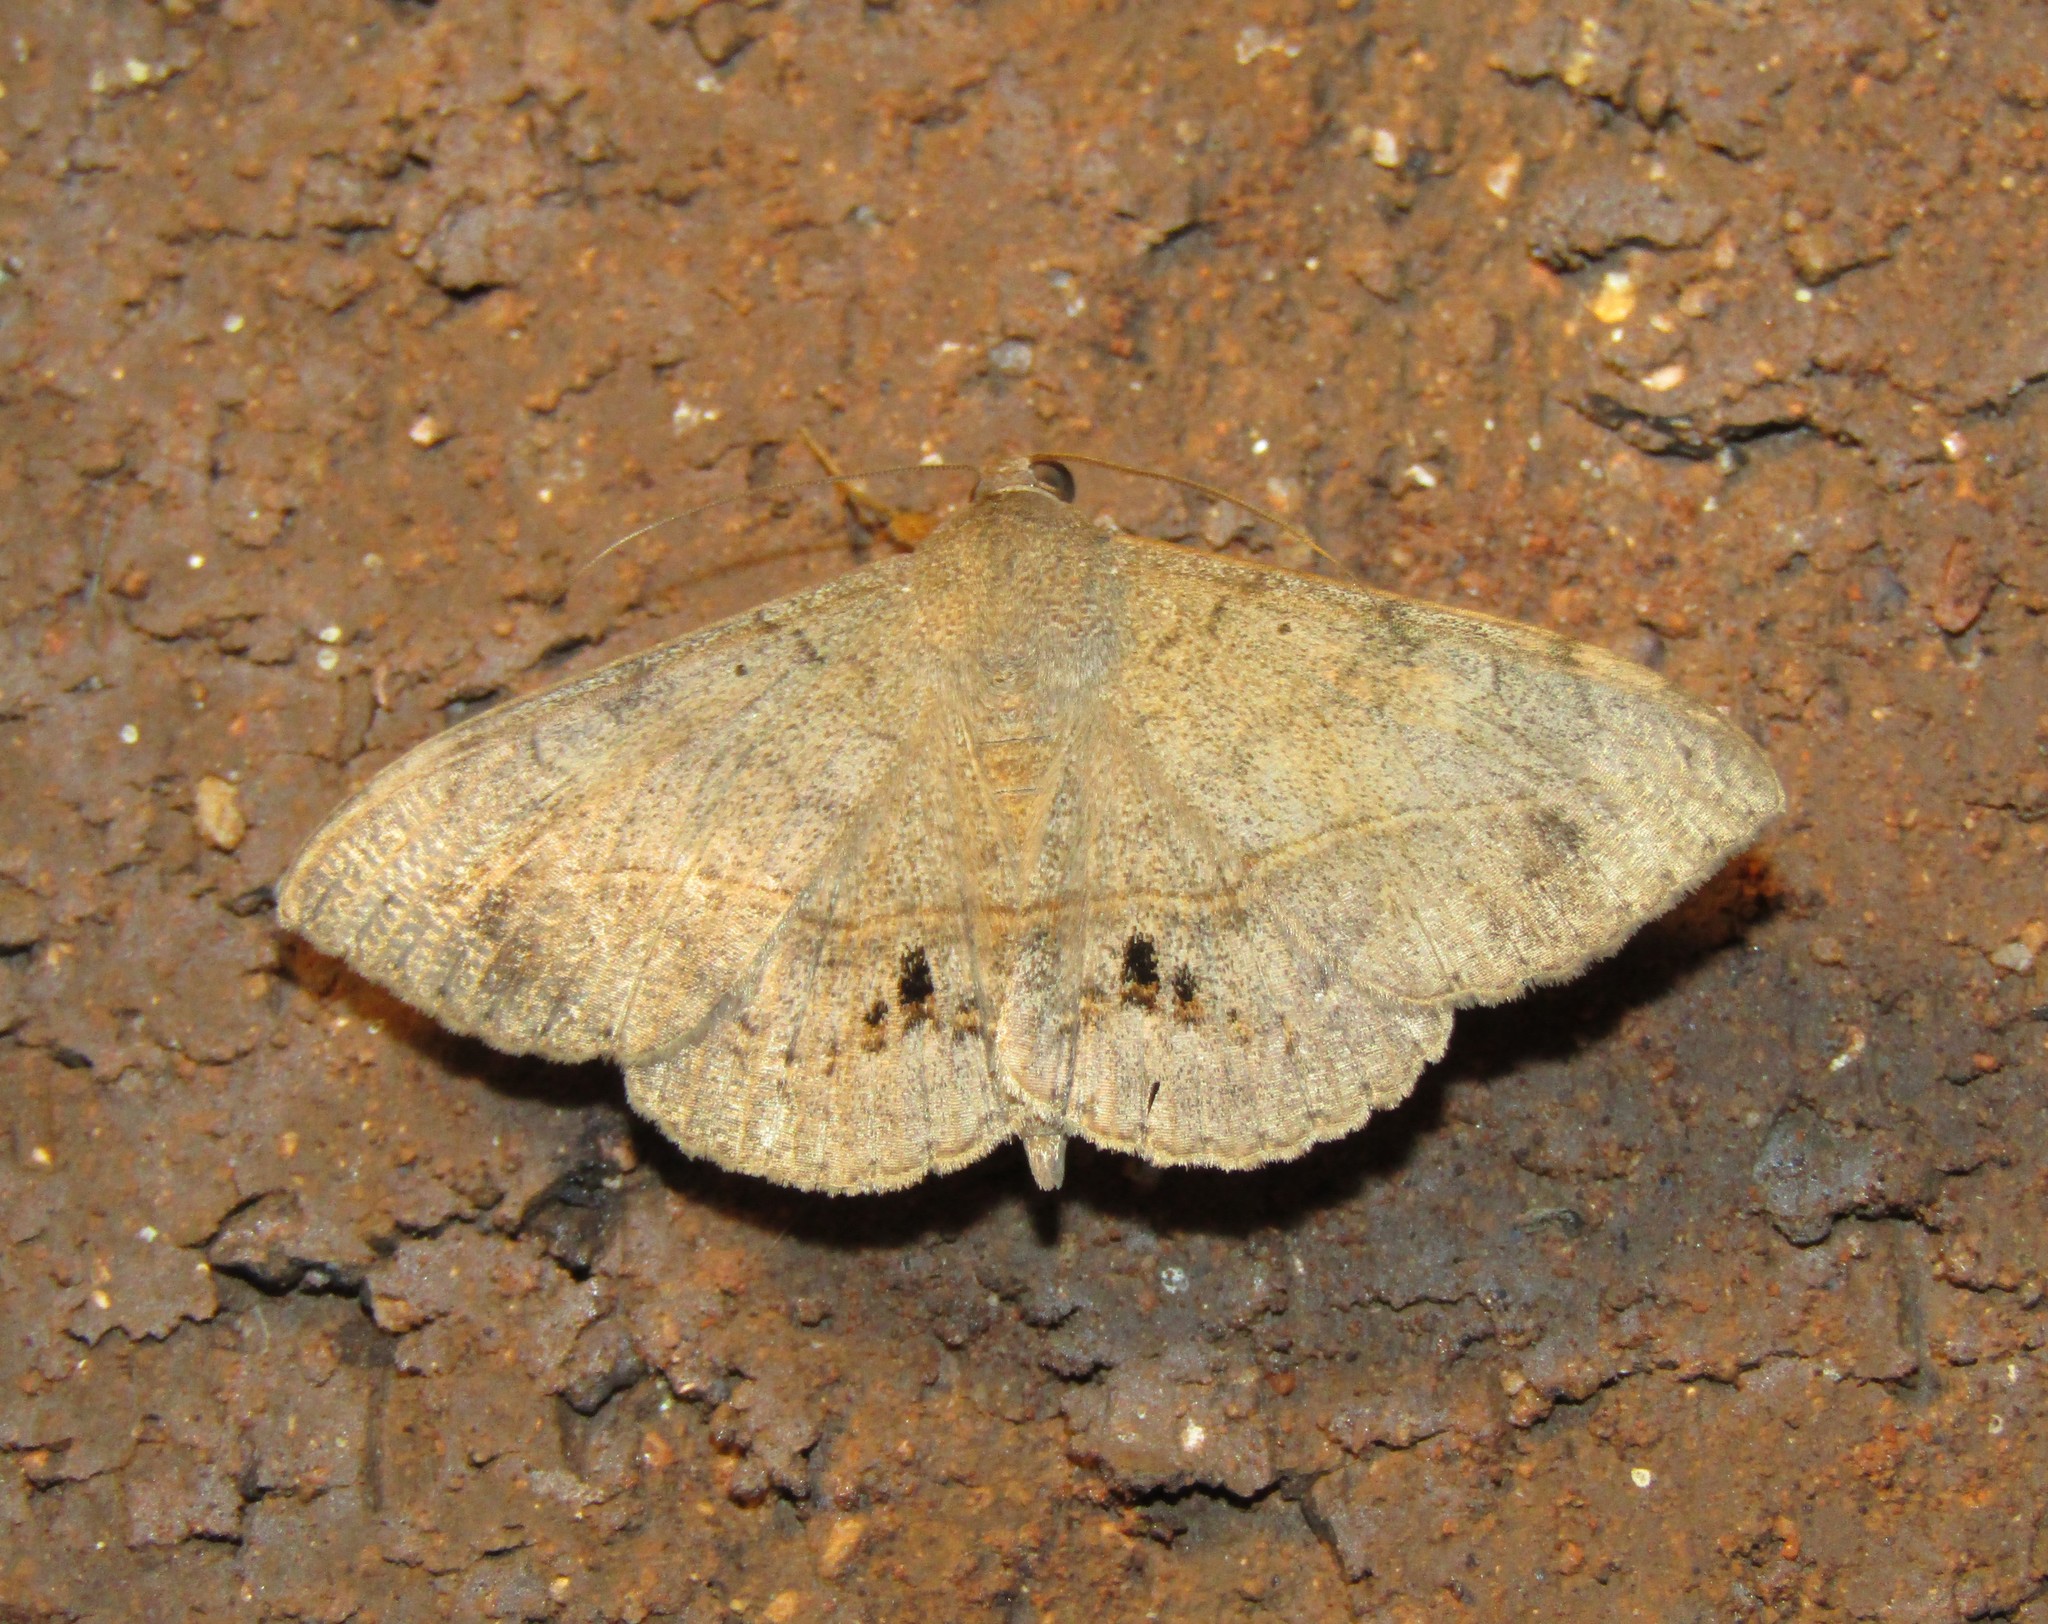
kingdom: Animalia
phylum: Arthropoda
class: Insecta
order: Lepidoptera
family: Erebidae
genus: Anticarsia
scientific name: Anticarsia gemmatalis
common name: Cutworm moth
